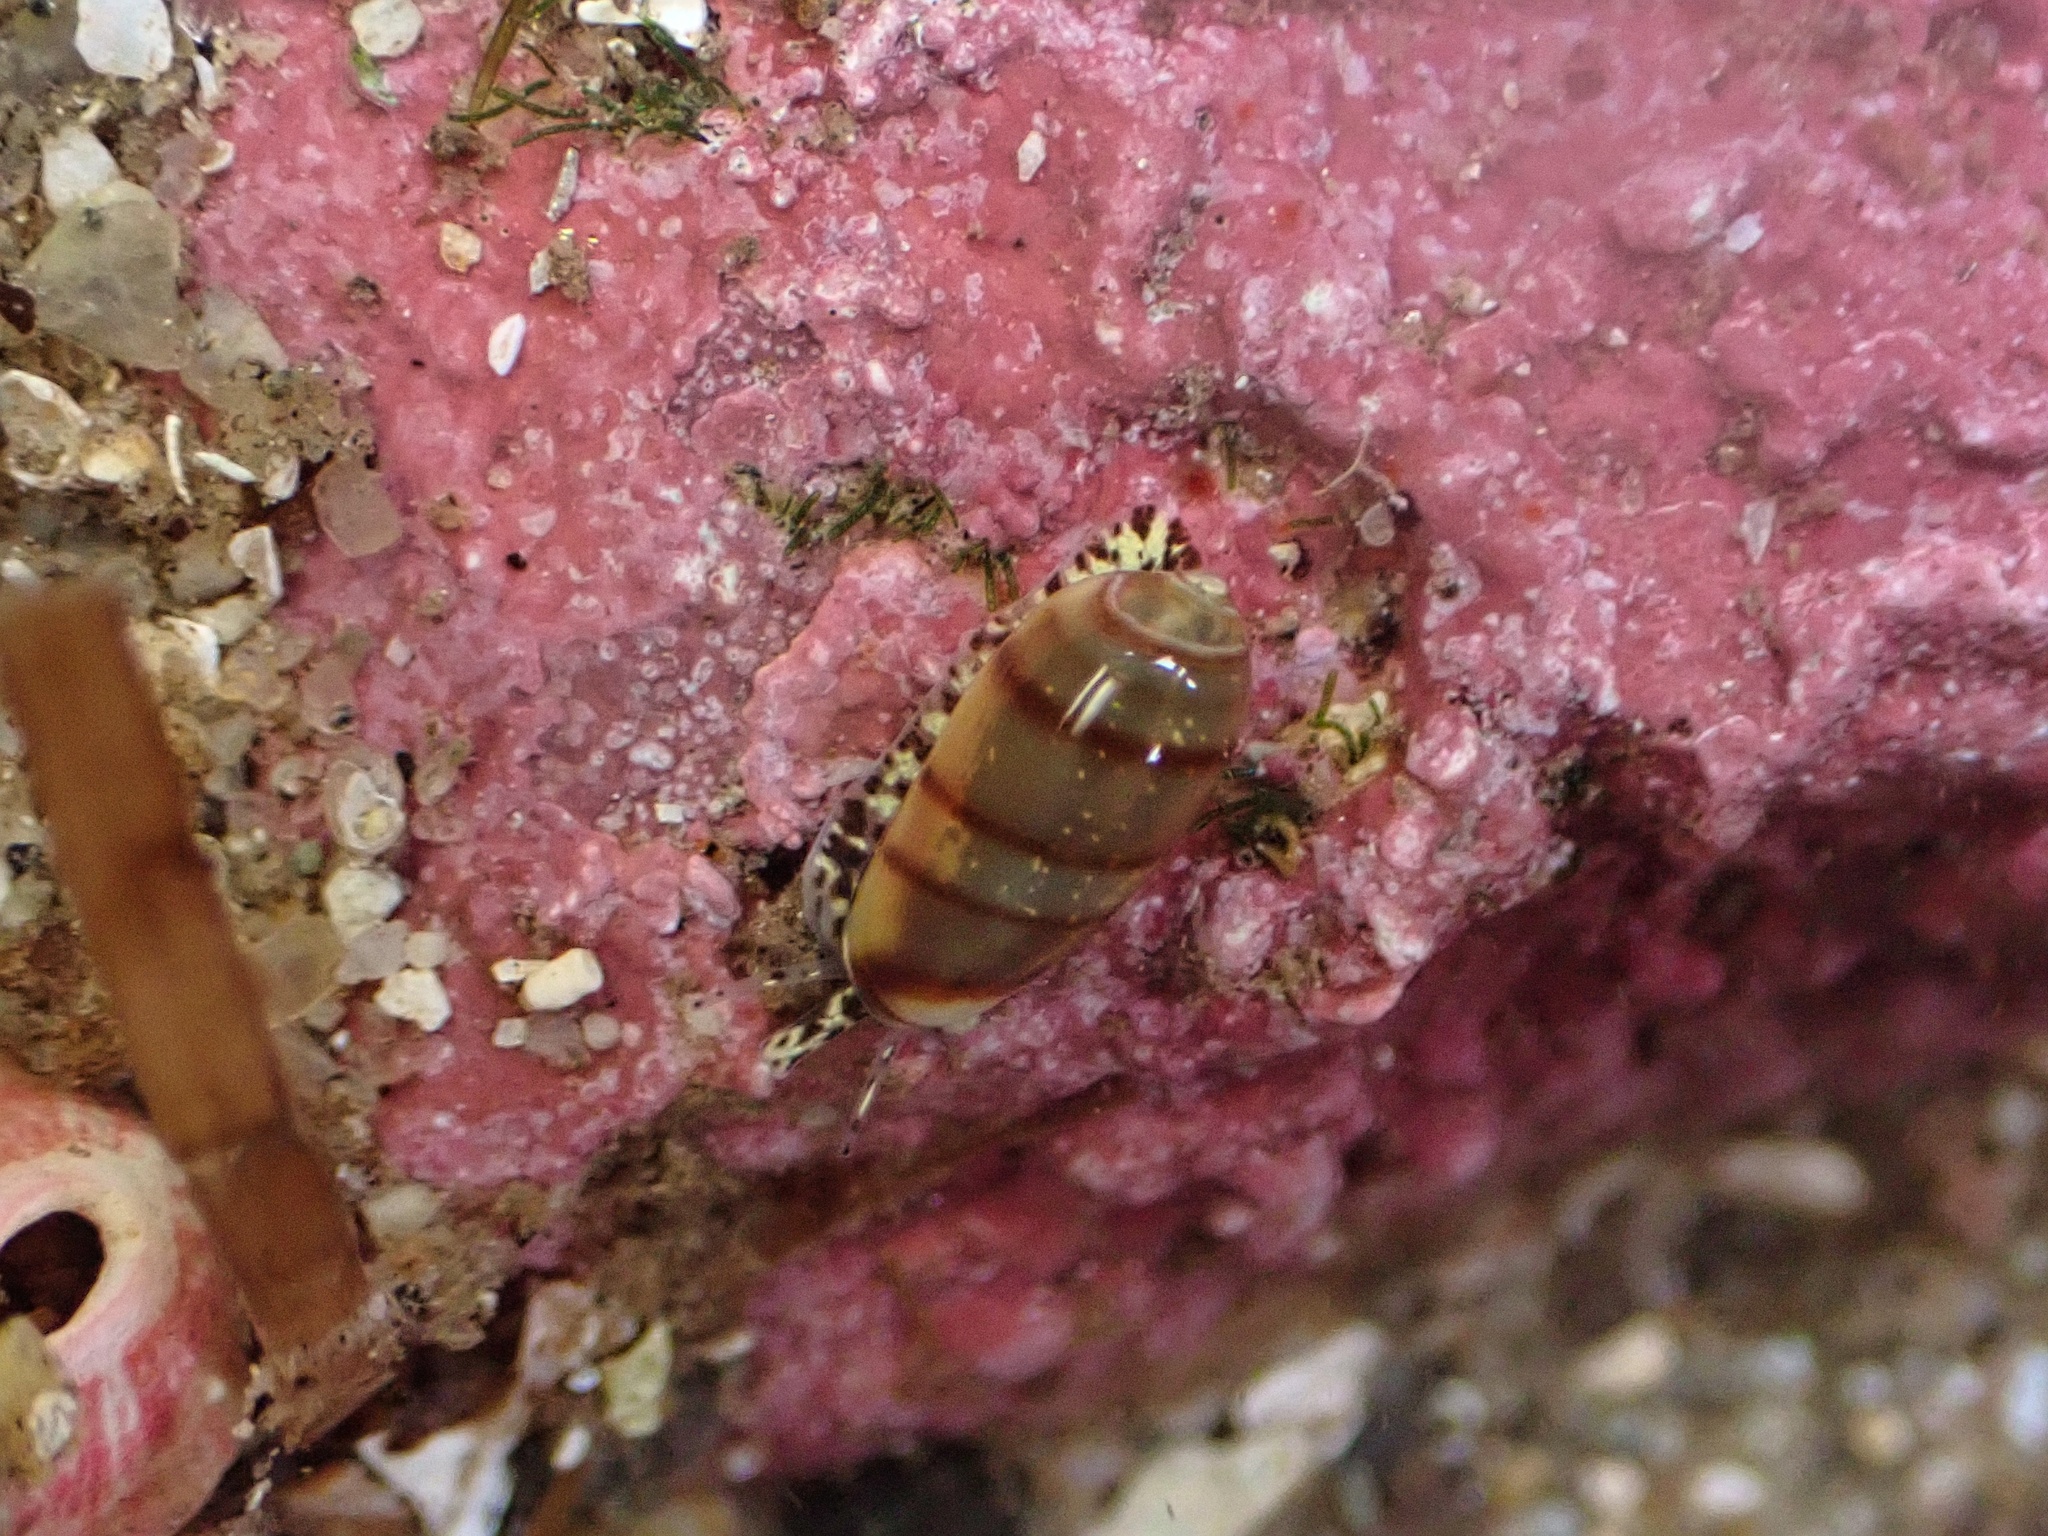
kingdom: Animalia
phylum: Mollusca
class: Gastropoda
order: Neogastropoda
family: Marginellidae
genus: Volvarina
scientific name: Volvarina taeniolata
